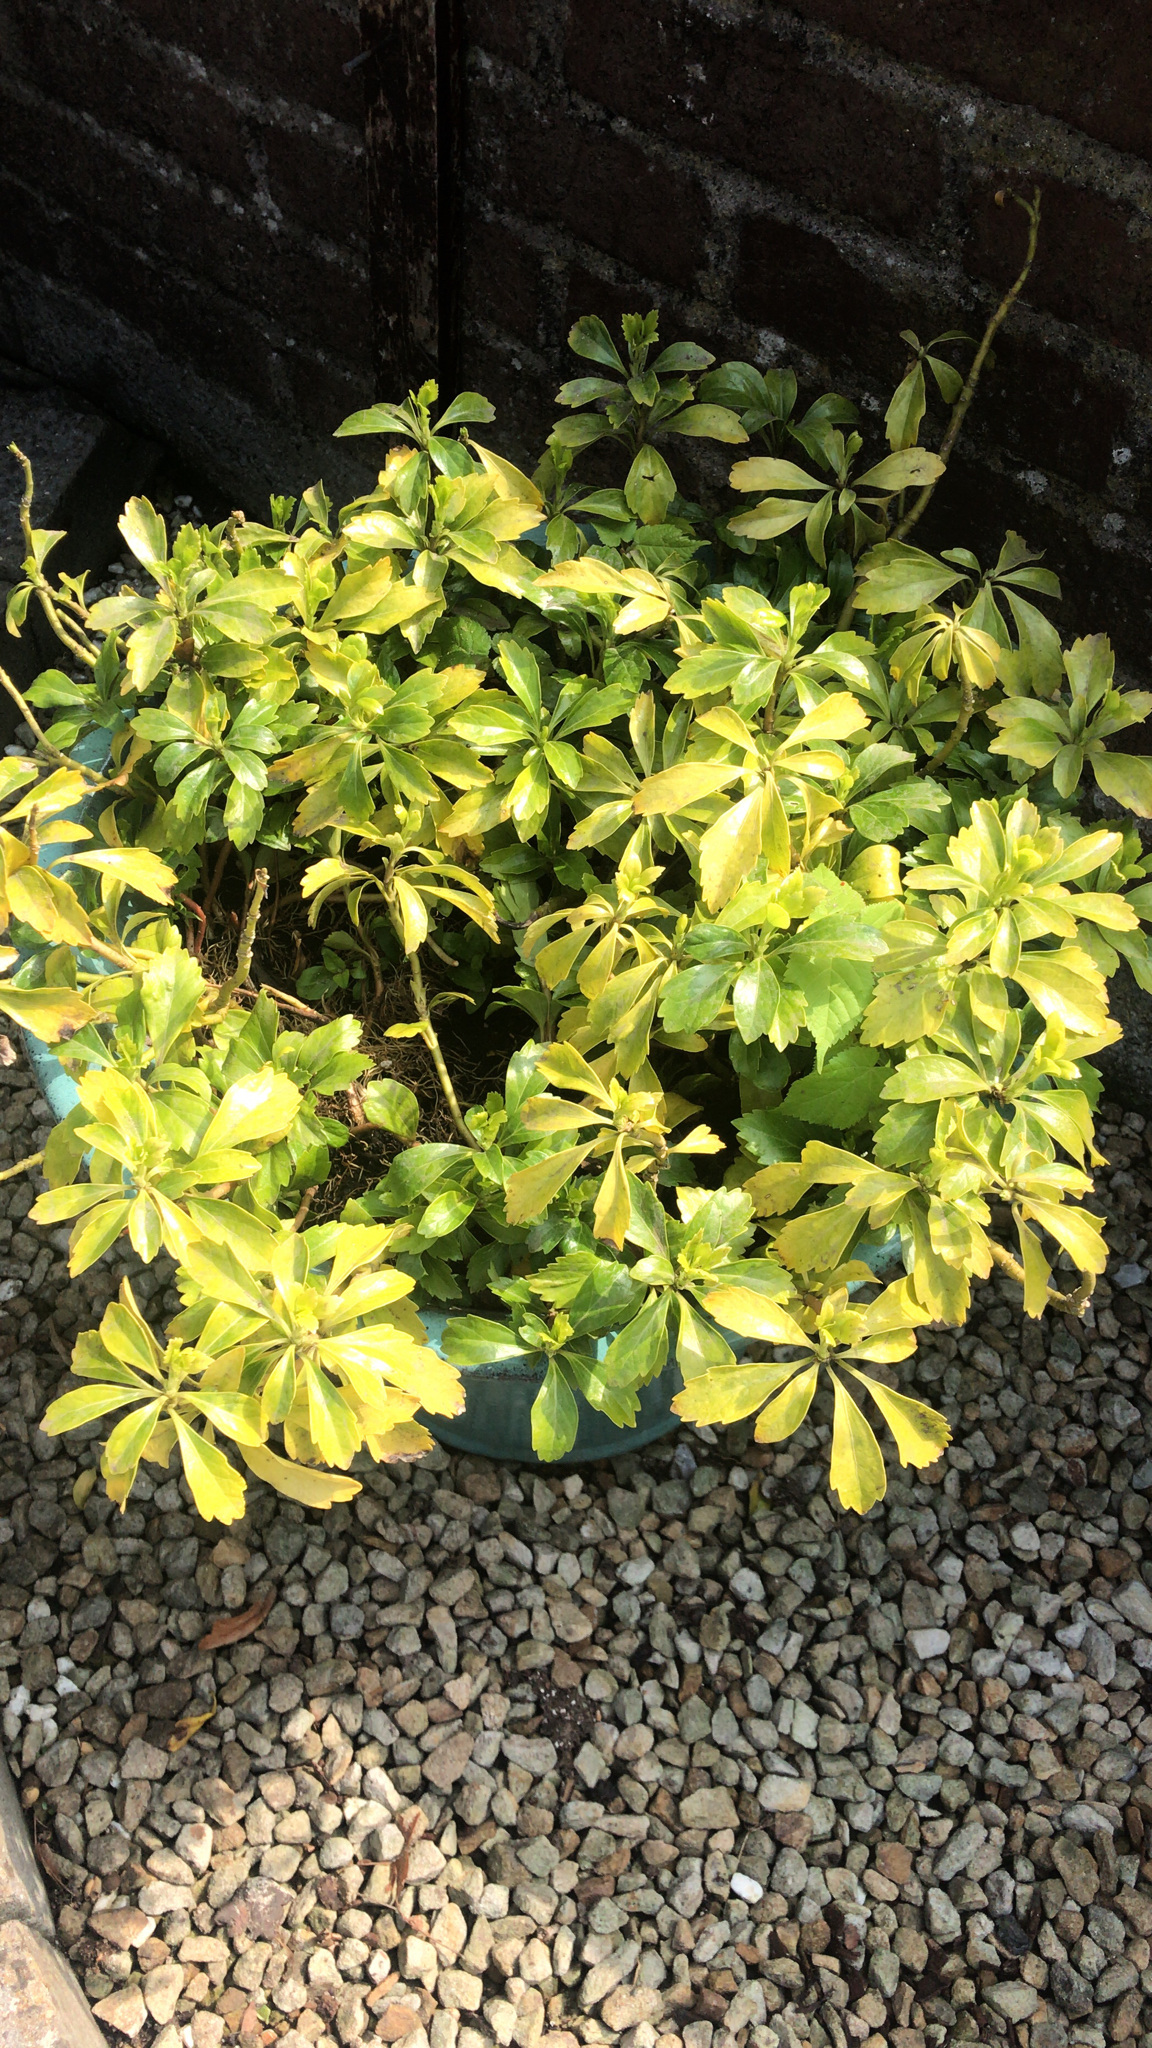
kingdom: Plantae
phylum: Tracheophyta
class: Magnoliopsida
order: Buxales
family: Buxaceae
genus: Pachysandra
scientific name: Pachysandra terminalis
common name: Japanese pachysandra
